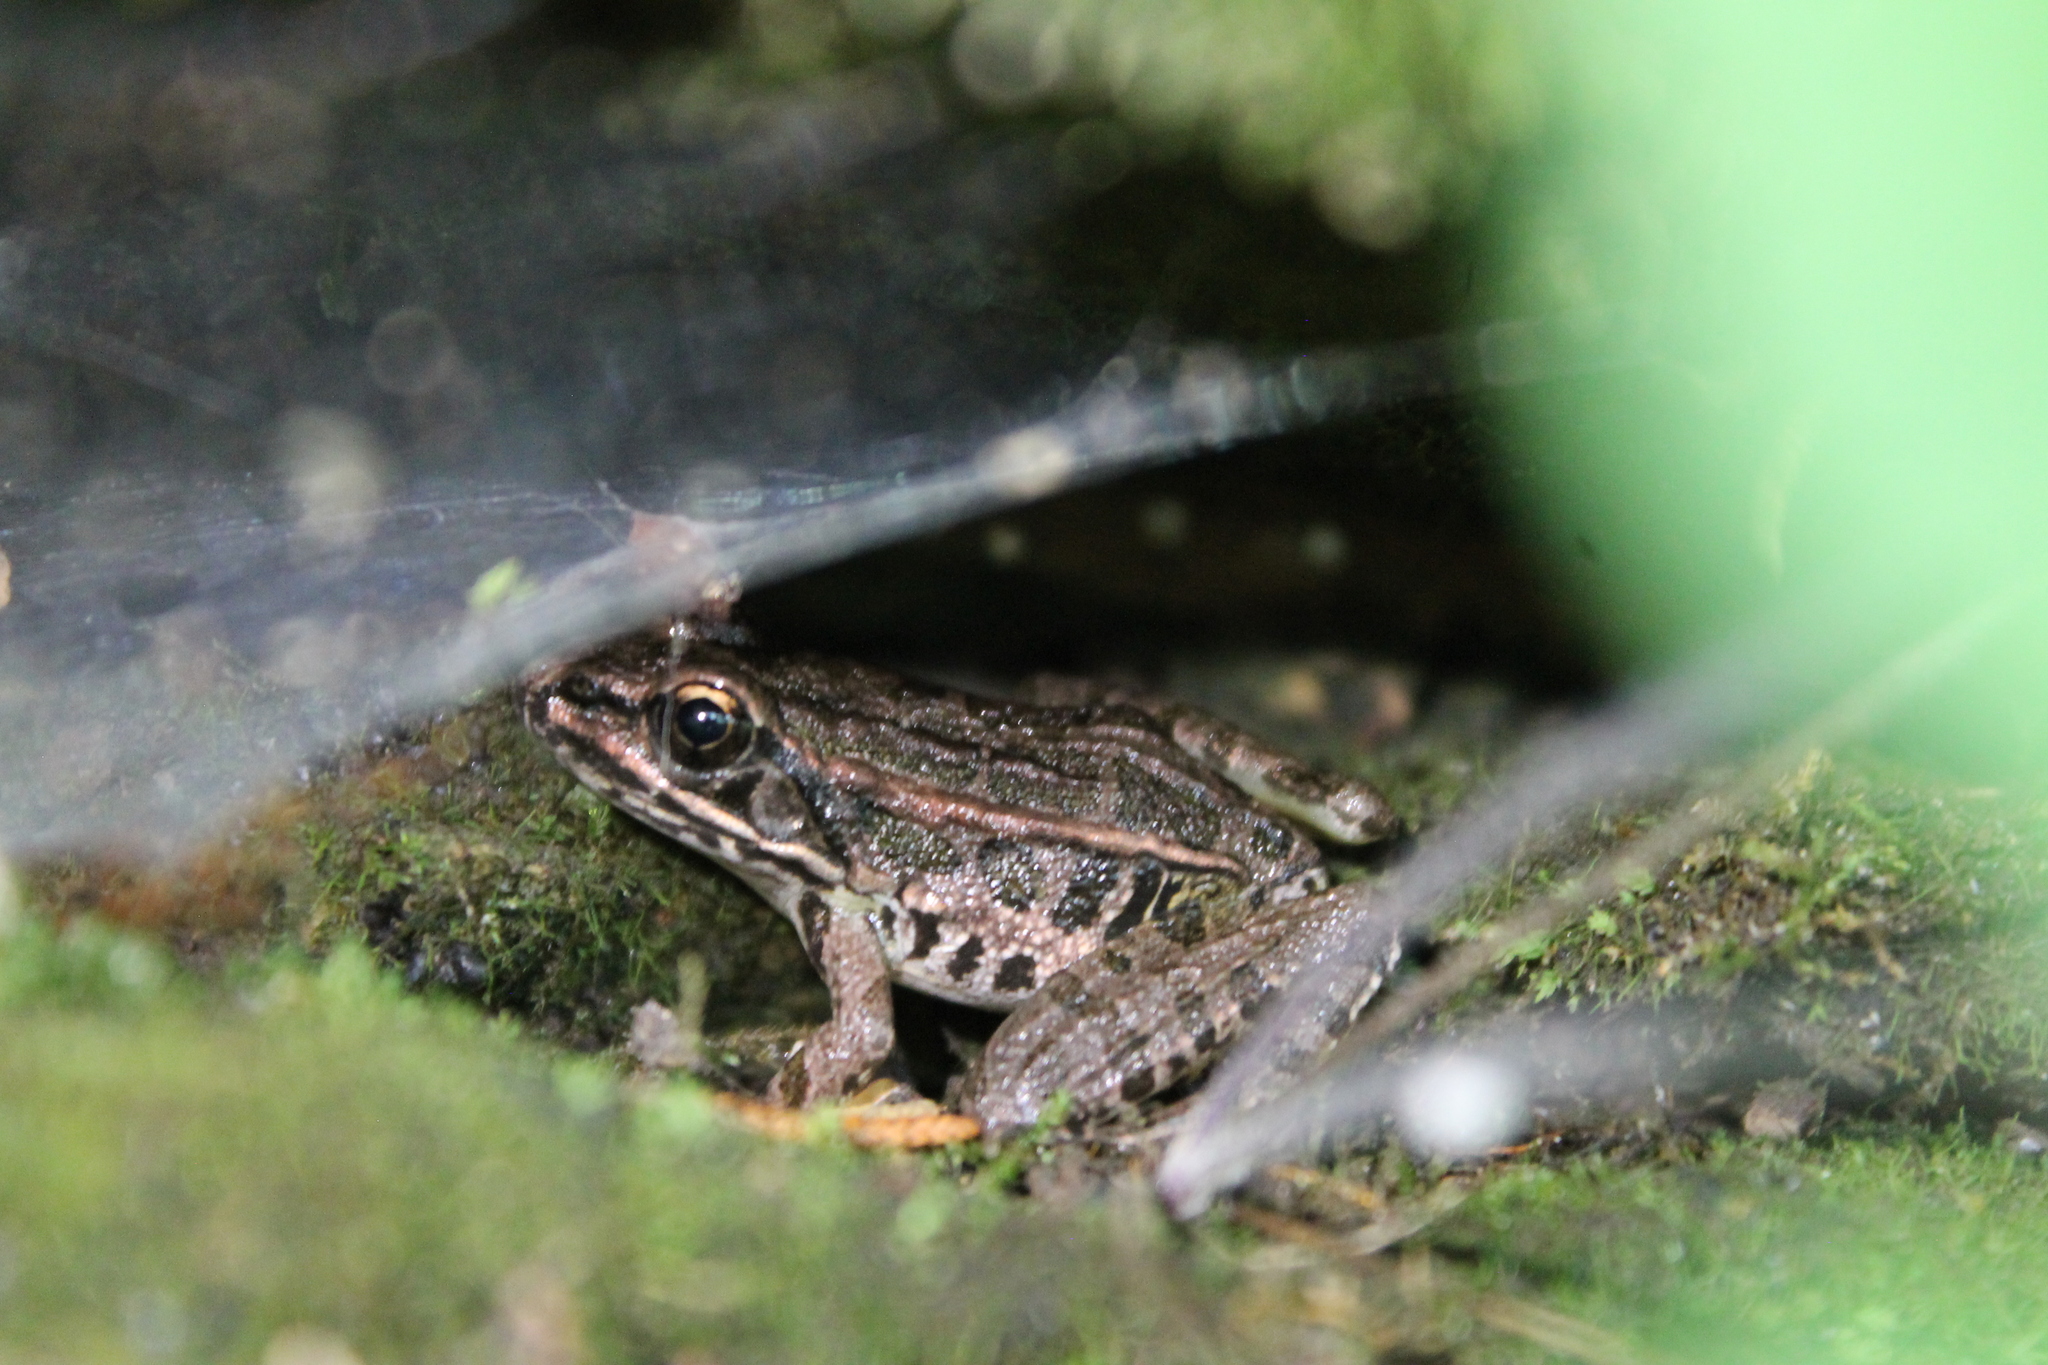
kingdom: Animalia
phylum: Chordata
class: Amphibia
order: Anura
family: Ranidae
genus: Lithobates
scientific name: Lithobates palustris
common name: Pickerel frog
